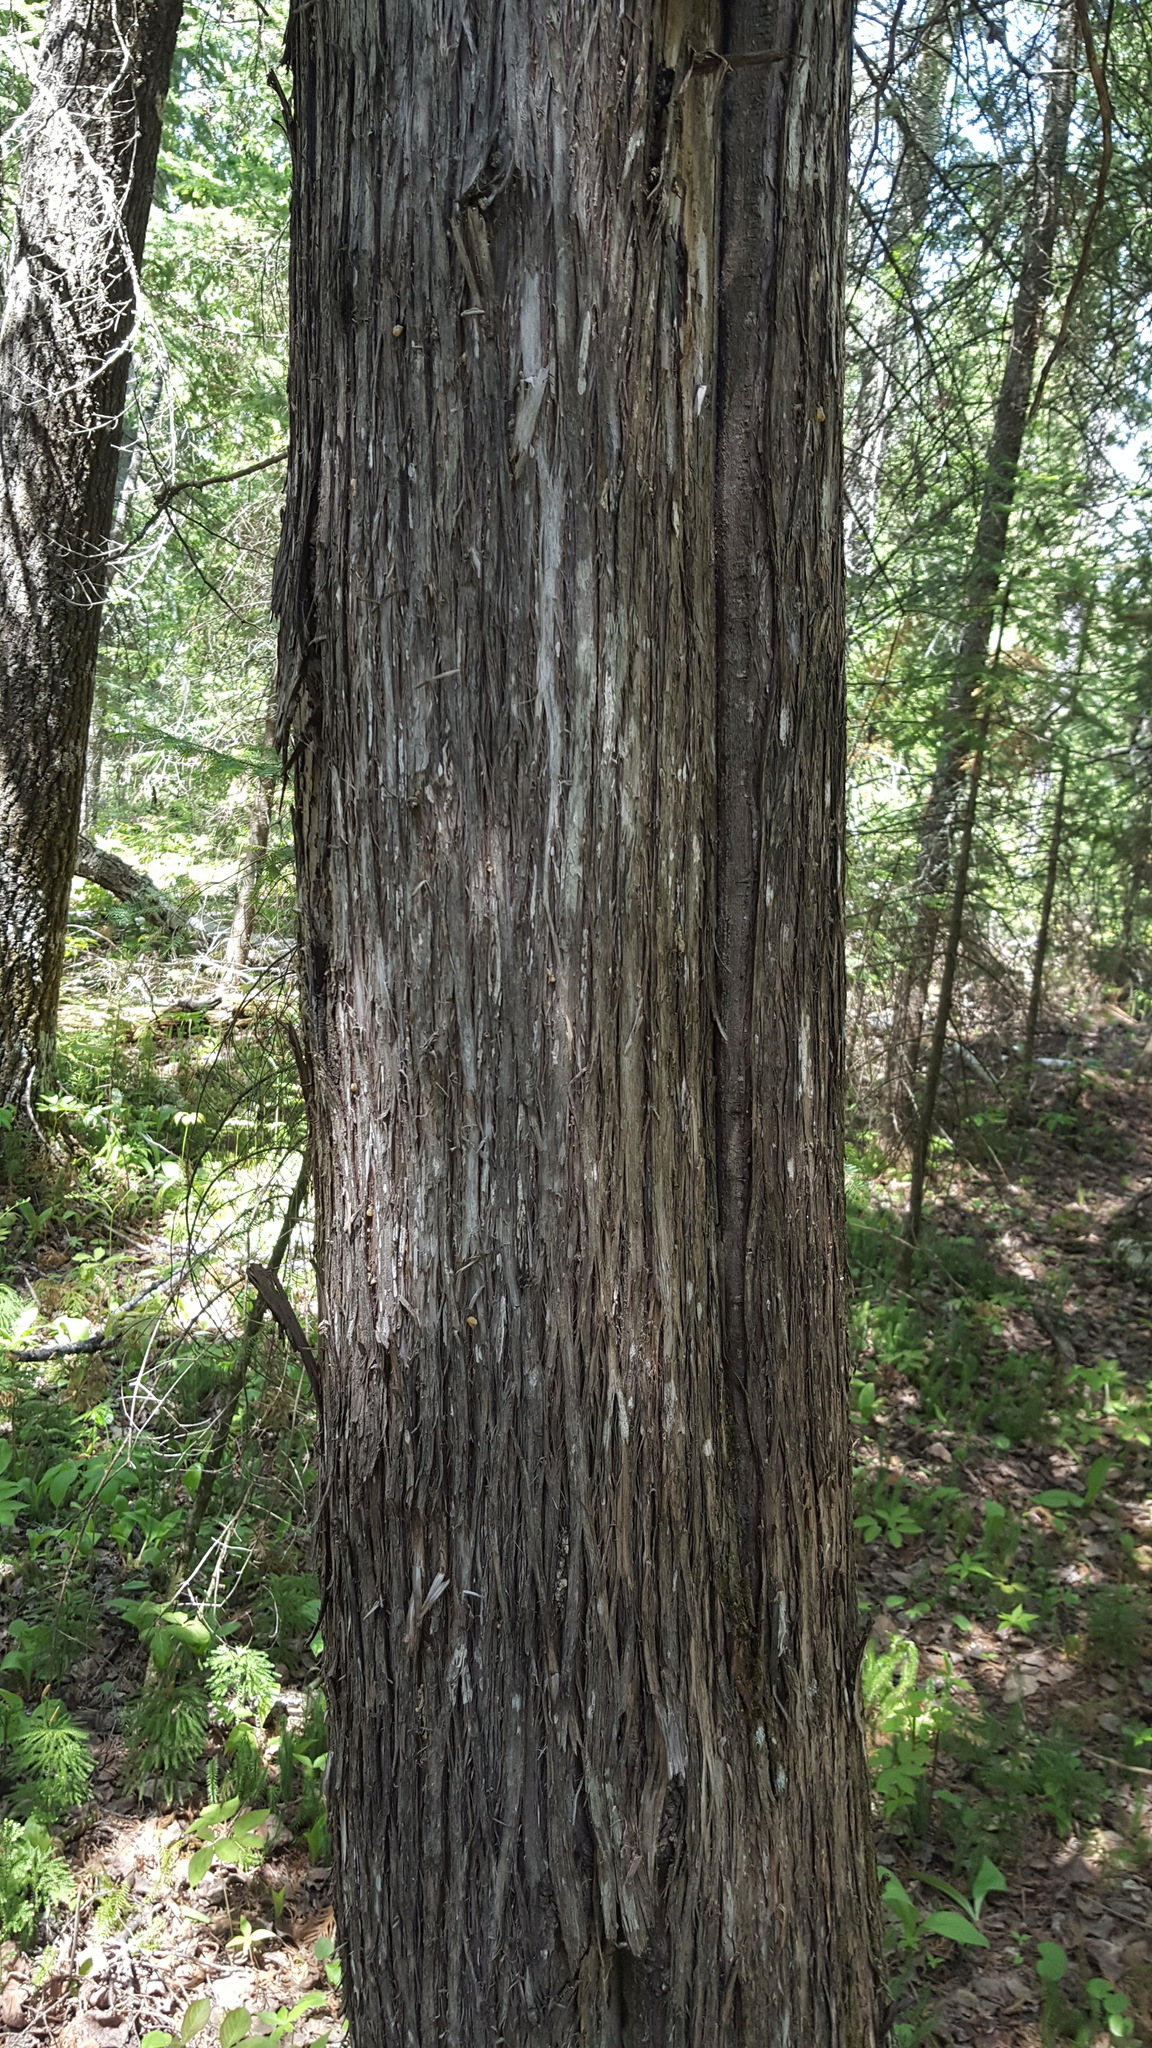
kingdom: Plantae
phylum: Tracheophyta
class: Pinopsida
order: Pinales
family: Cupressaceae
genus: Thuja
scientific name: Thuja occidentalis
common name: Northern white-cedar
